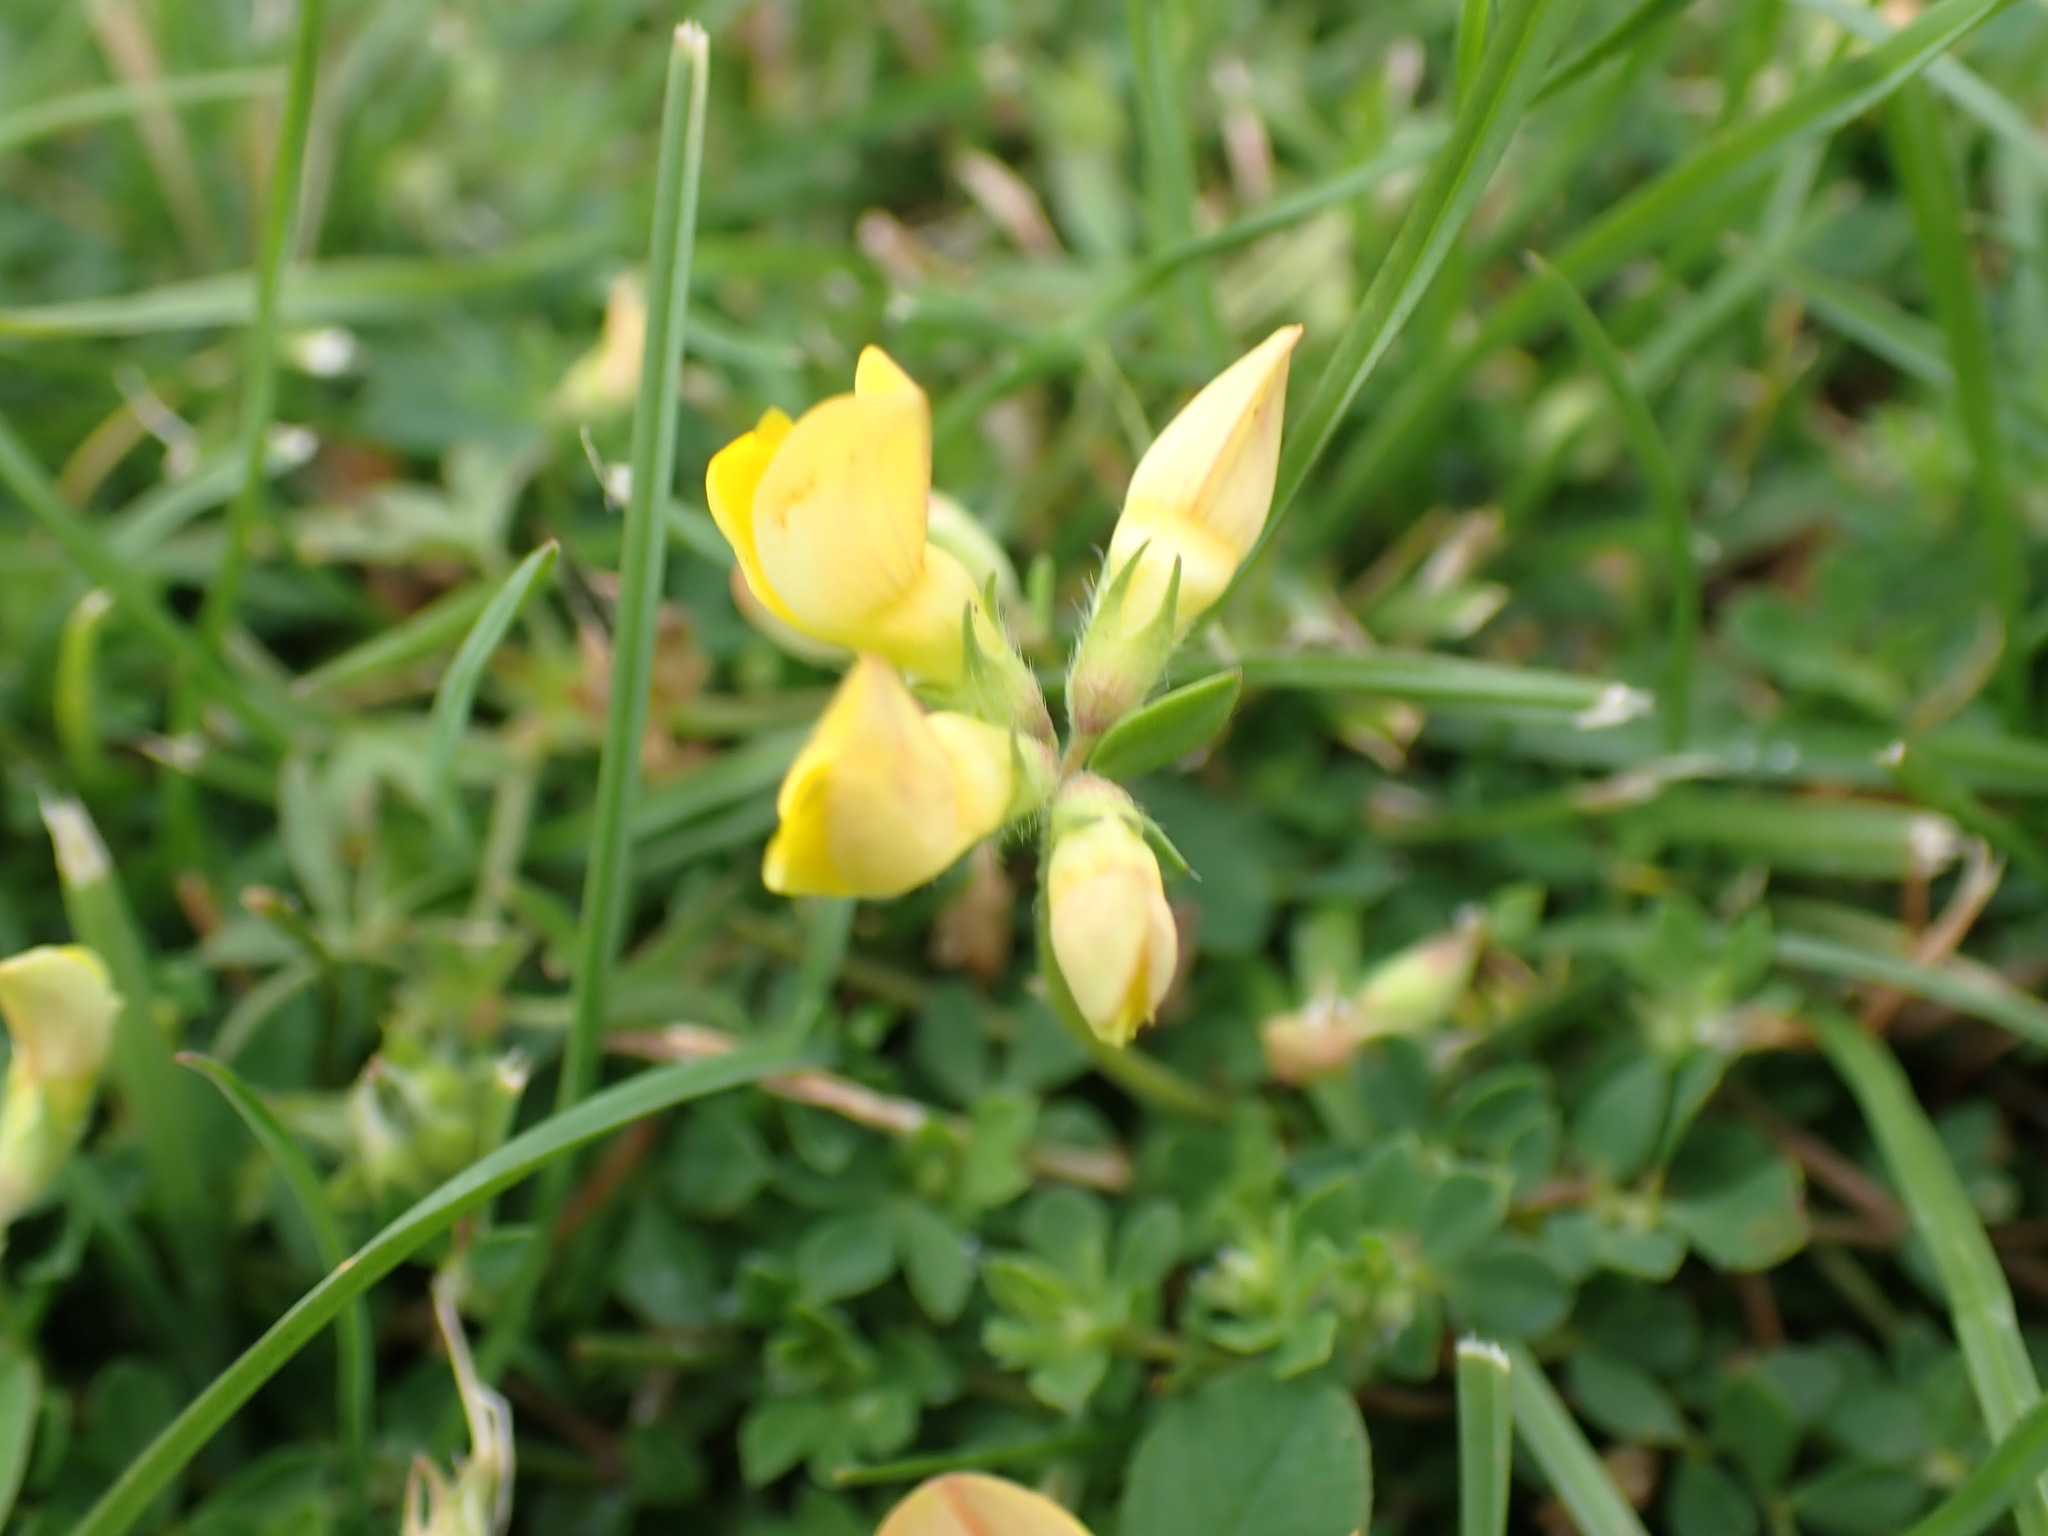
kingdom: Plantae
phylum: Tracheophyta
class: Magnoliopsida
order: Fabales
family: Fabaceae
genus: Lotus
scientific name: Lotus corniculatus
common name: Common bird's-foot-trefoil
